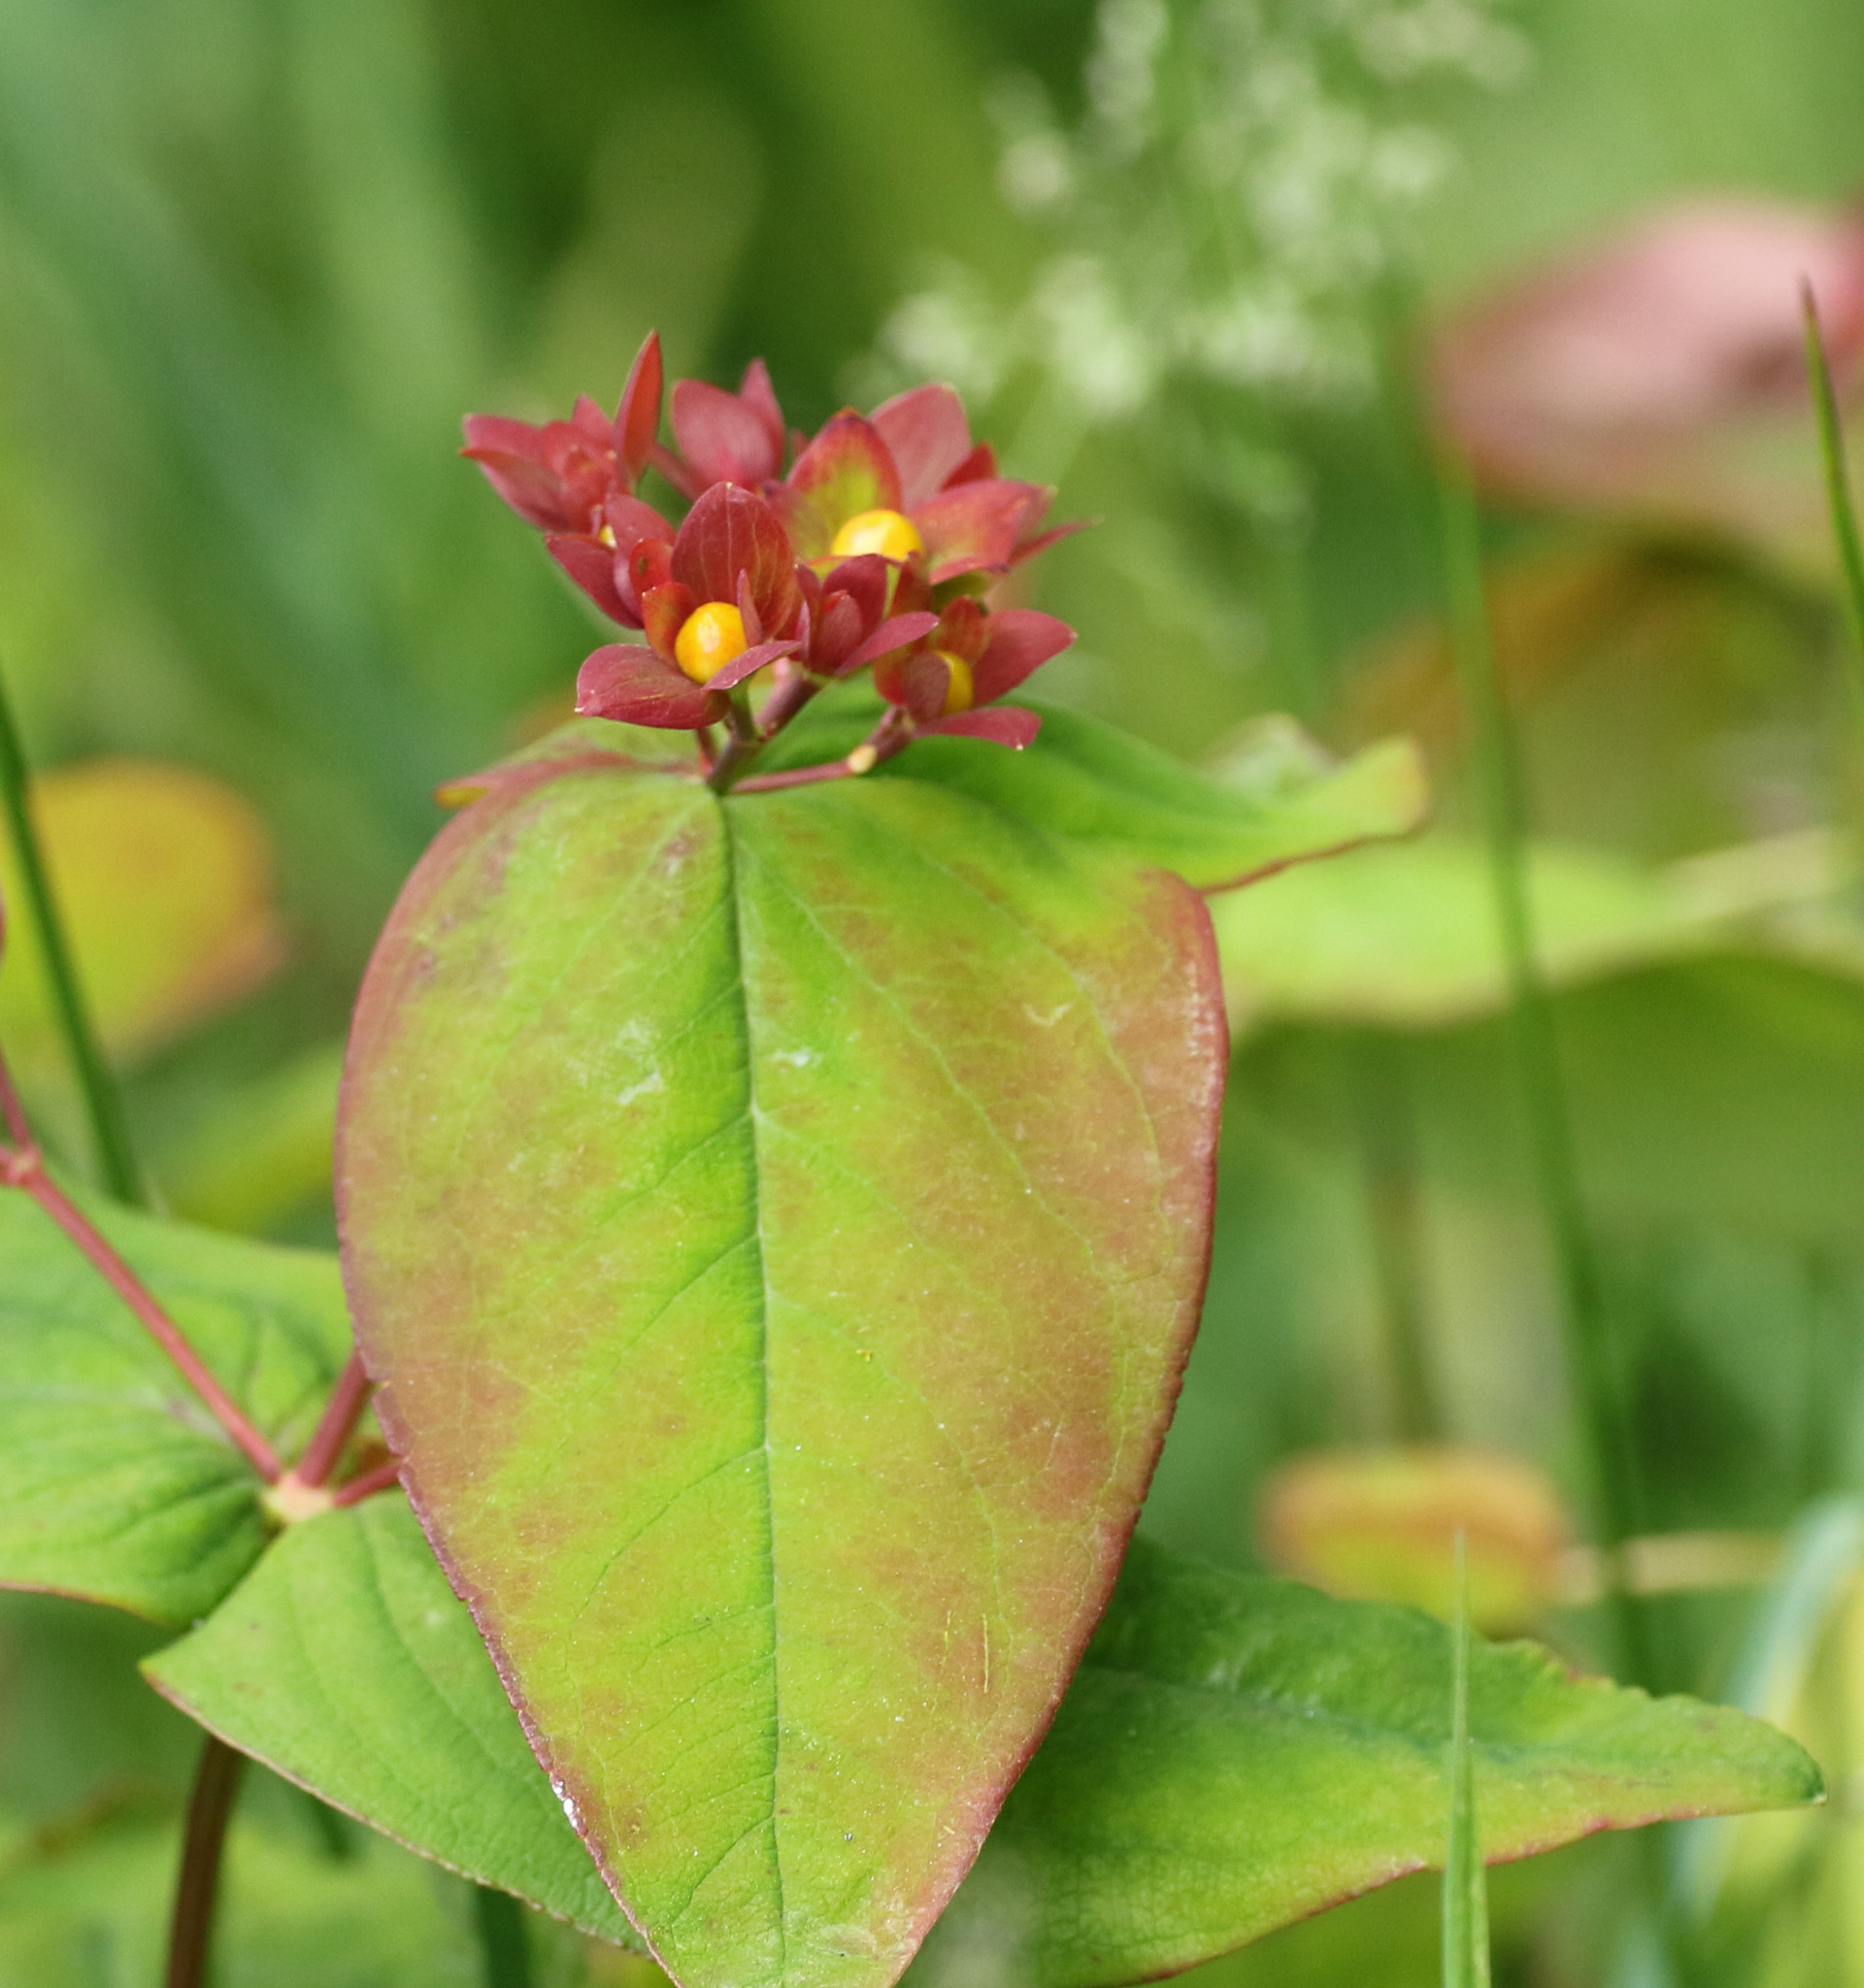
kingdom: Plantae
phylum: Tracheophyta
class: Magnoliopsida
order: Malpighiales
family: Hypericaceae
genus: Hypericum
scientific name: Hypericum androsaemum
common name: Sweet-amber
